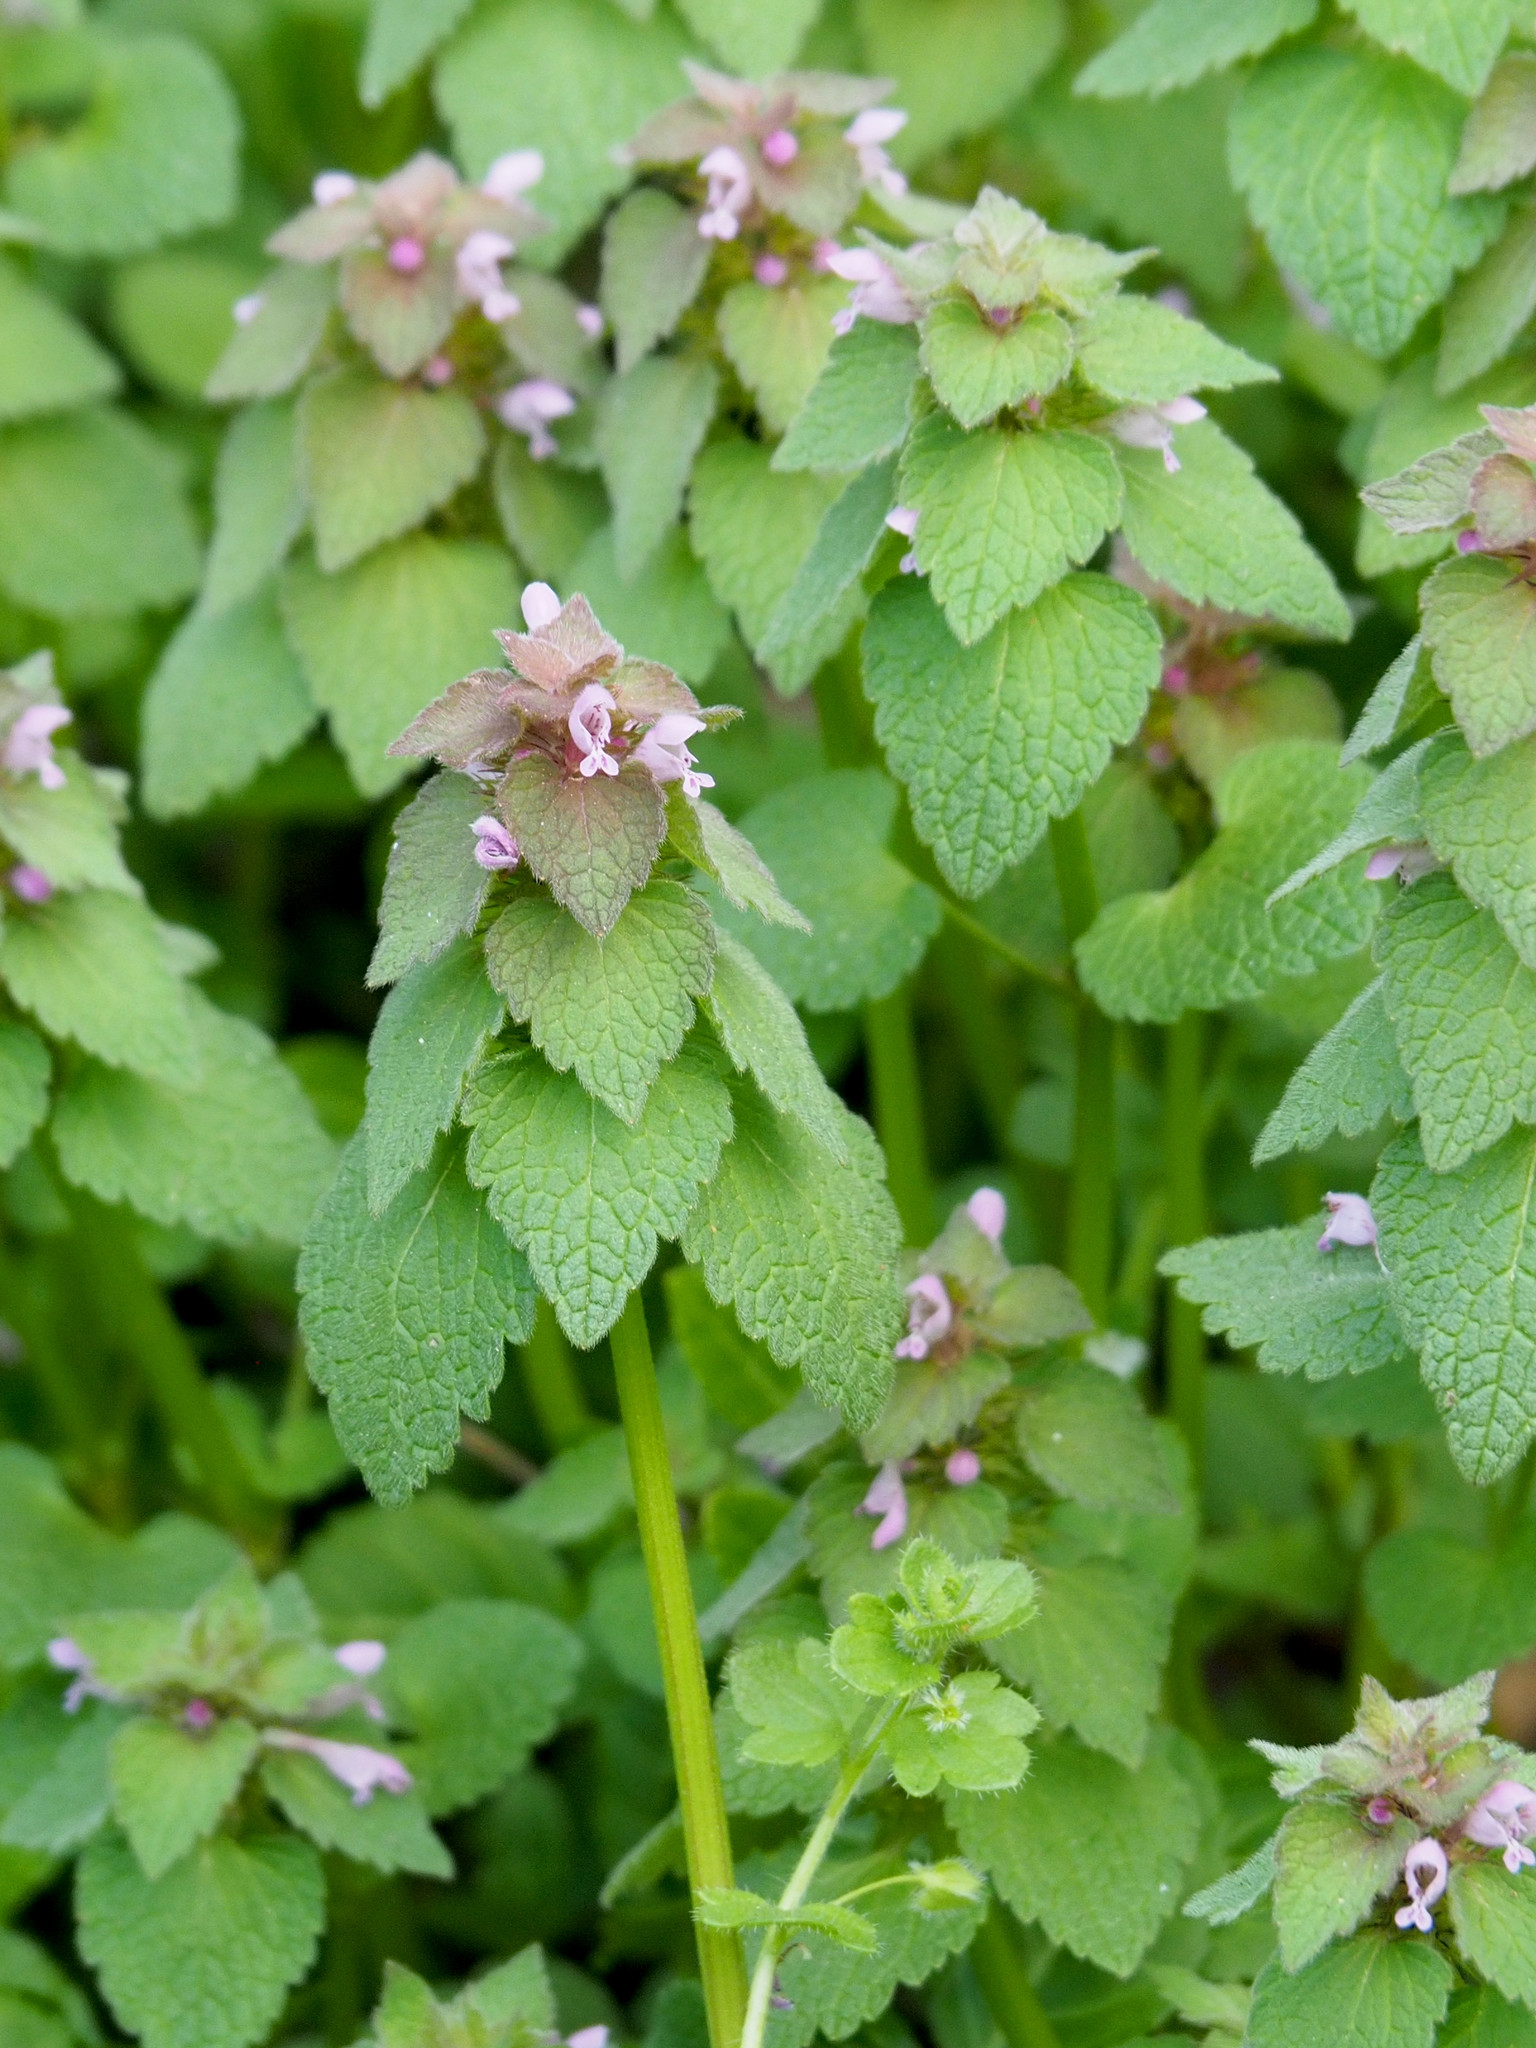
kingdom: Plantae
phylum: Tracheophyta
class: Magnoliopsida
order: Lamiales
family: Lamiaceae
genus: Lamium
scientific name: Lamium purpureum
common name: Red dead-nettle
